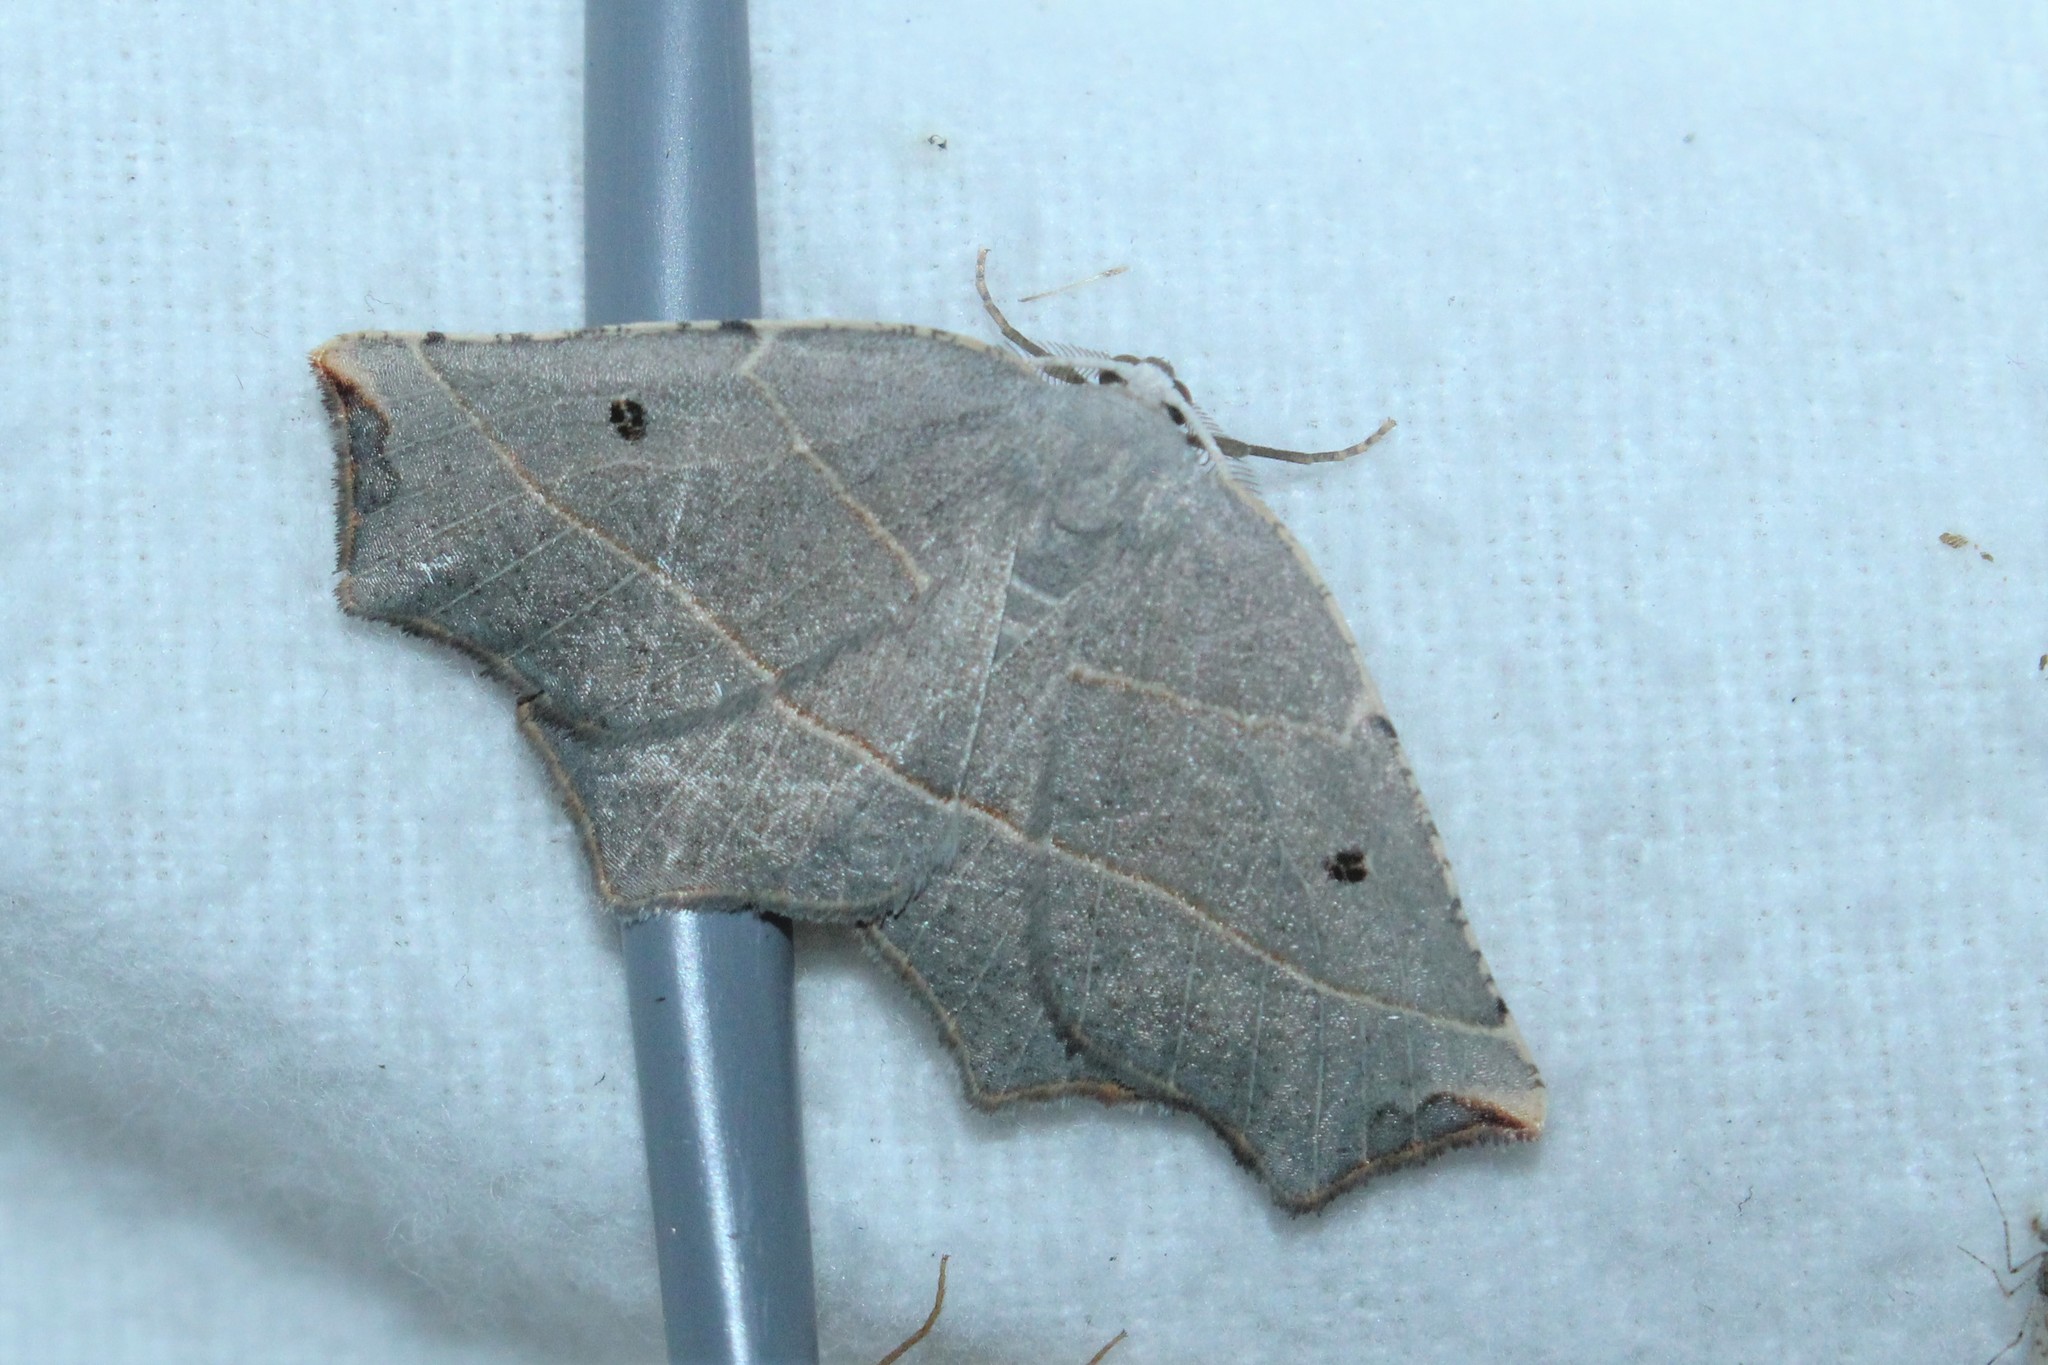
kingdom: Animalia
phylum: Arthropoda
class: Insecta
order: Lepidoptera
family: Geometridae
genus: Metanema
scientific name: Metanema inatomaria
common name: Pale metanema
